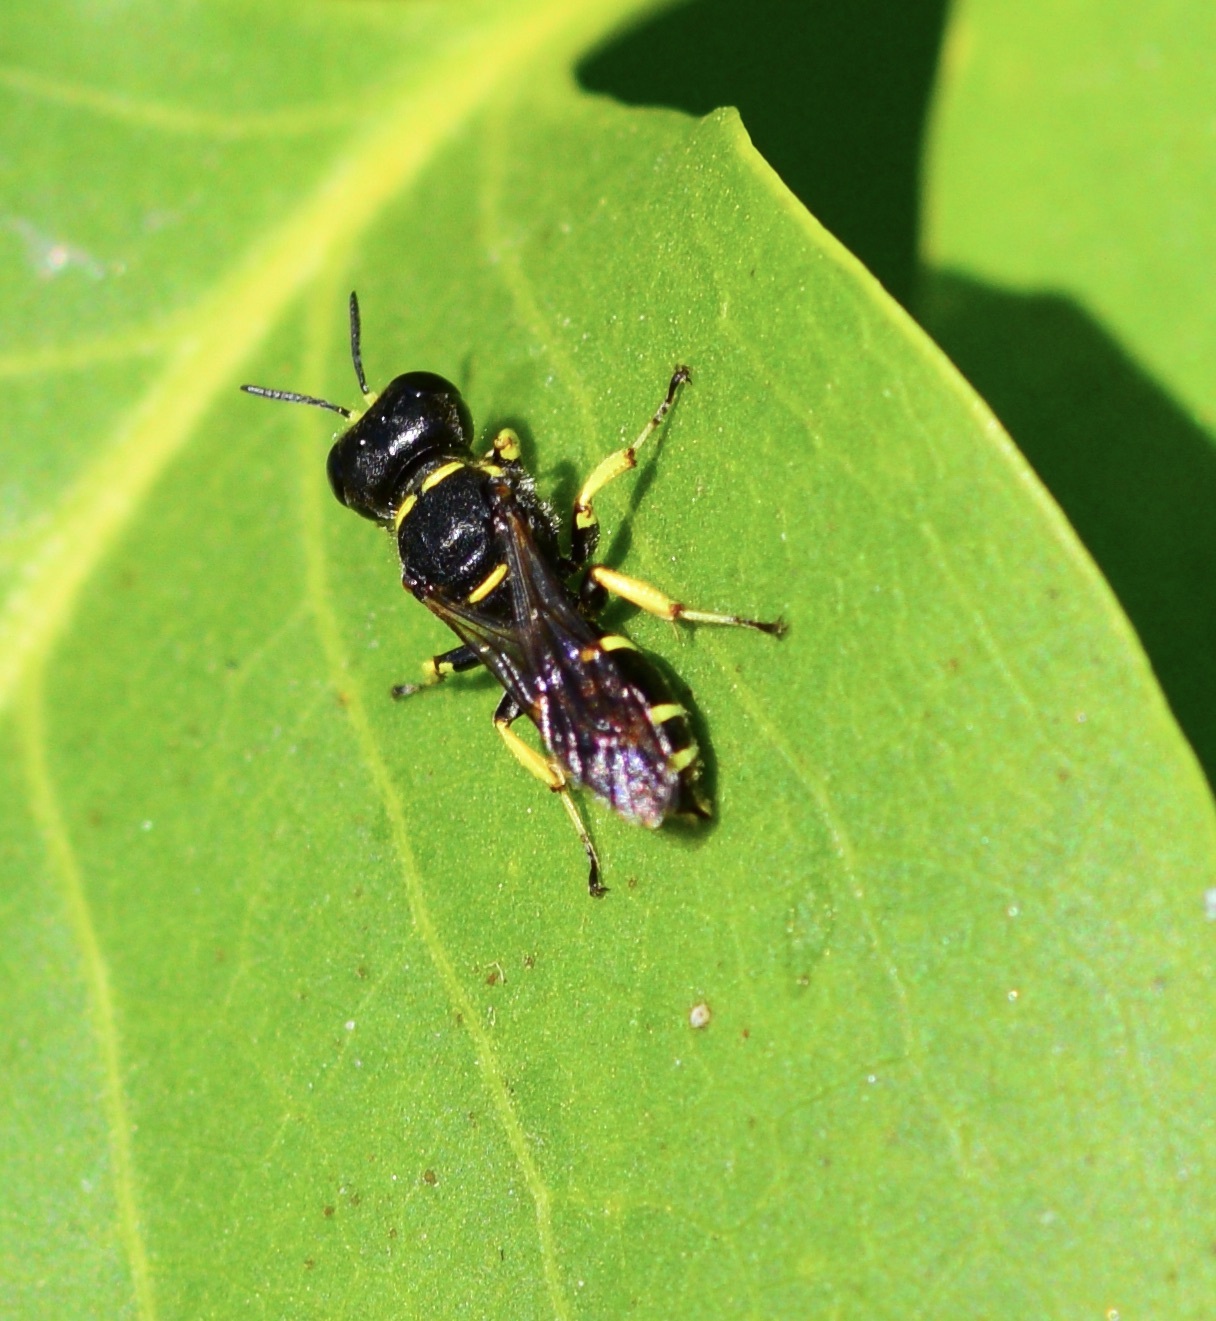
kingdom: Animalia
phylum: Arthropoda
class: Insecta
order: Hymenoptera
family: Crabronidae
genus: Ectemnius
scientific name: Ectemnius continuus
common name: Common ectemnius
